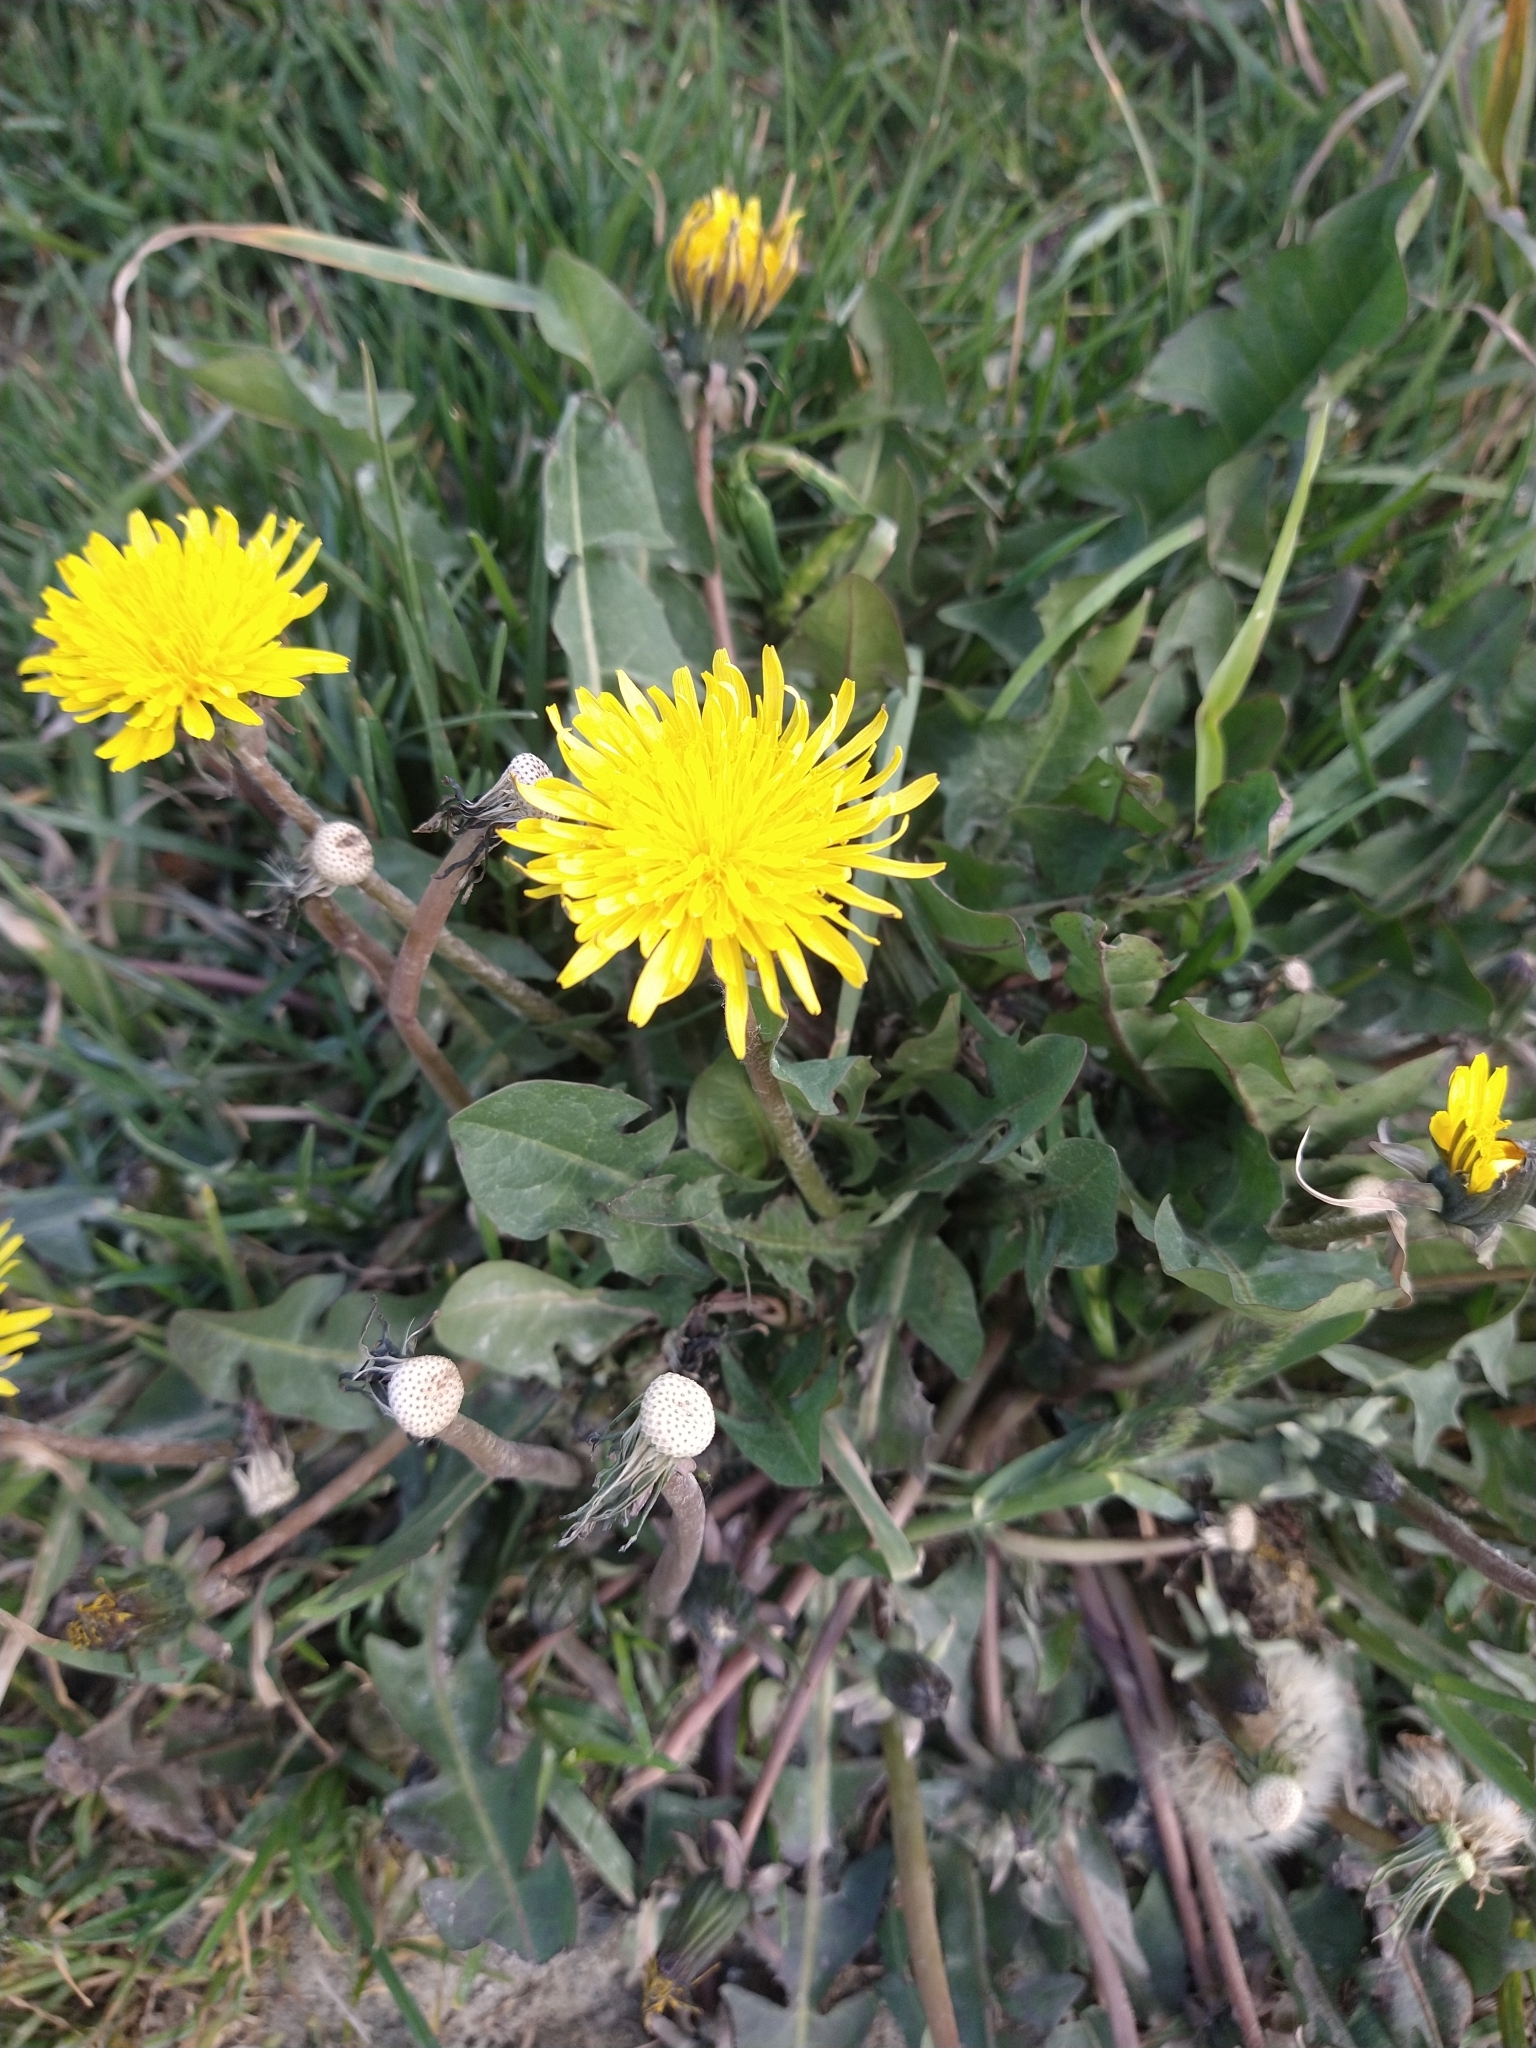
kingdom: Plantae
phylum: Tracheophyta
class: Magnoliopsida
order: Asterales
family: Asteraceae
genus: Taraxacum
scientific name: Taraxacum officinale
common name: Common dandelion
